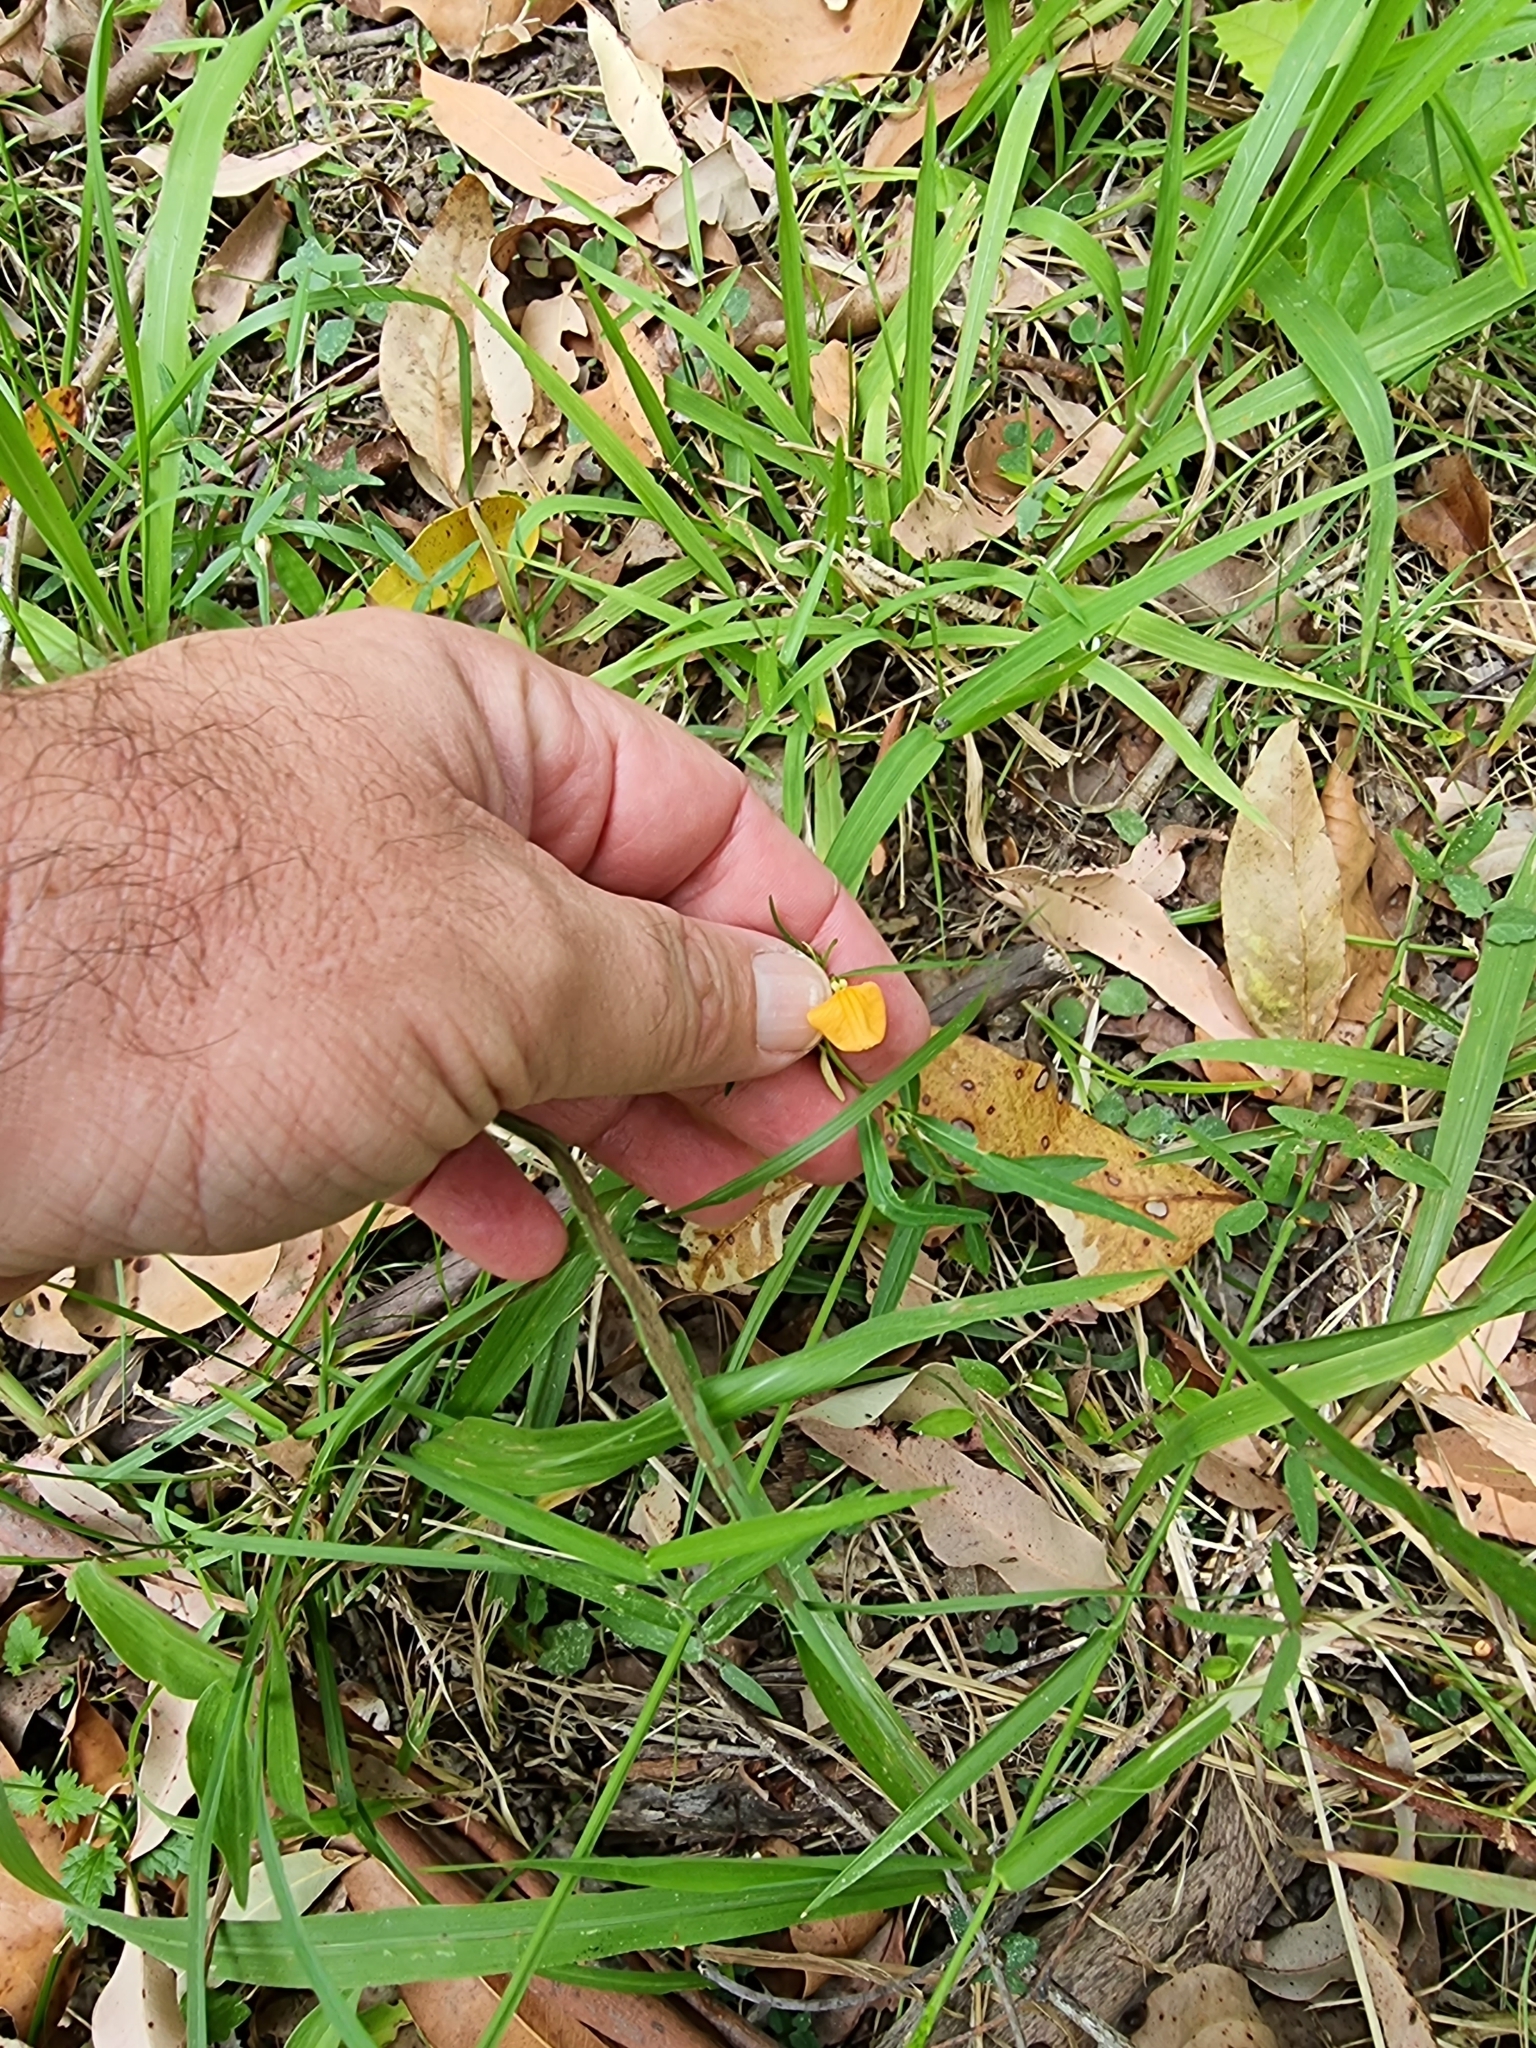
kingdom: Plantae
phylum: Tracheophyta
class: Magnoliopsida
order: Malpighiales
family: Violaceae
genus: Pigea
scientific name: Pigea stellarioides
